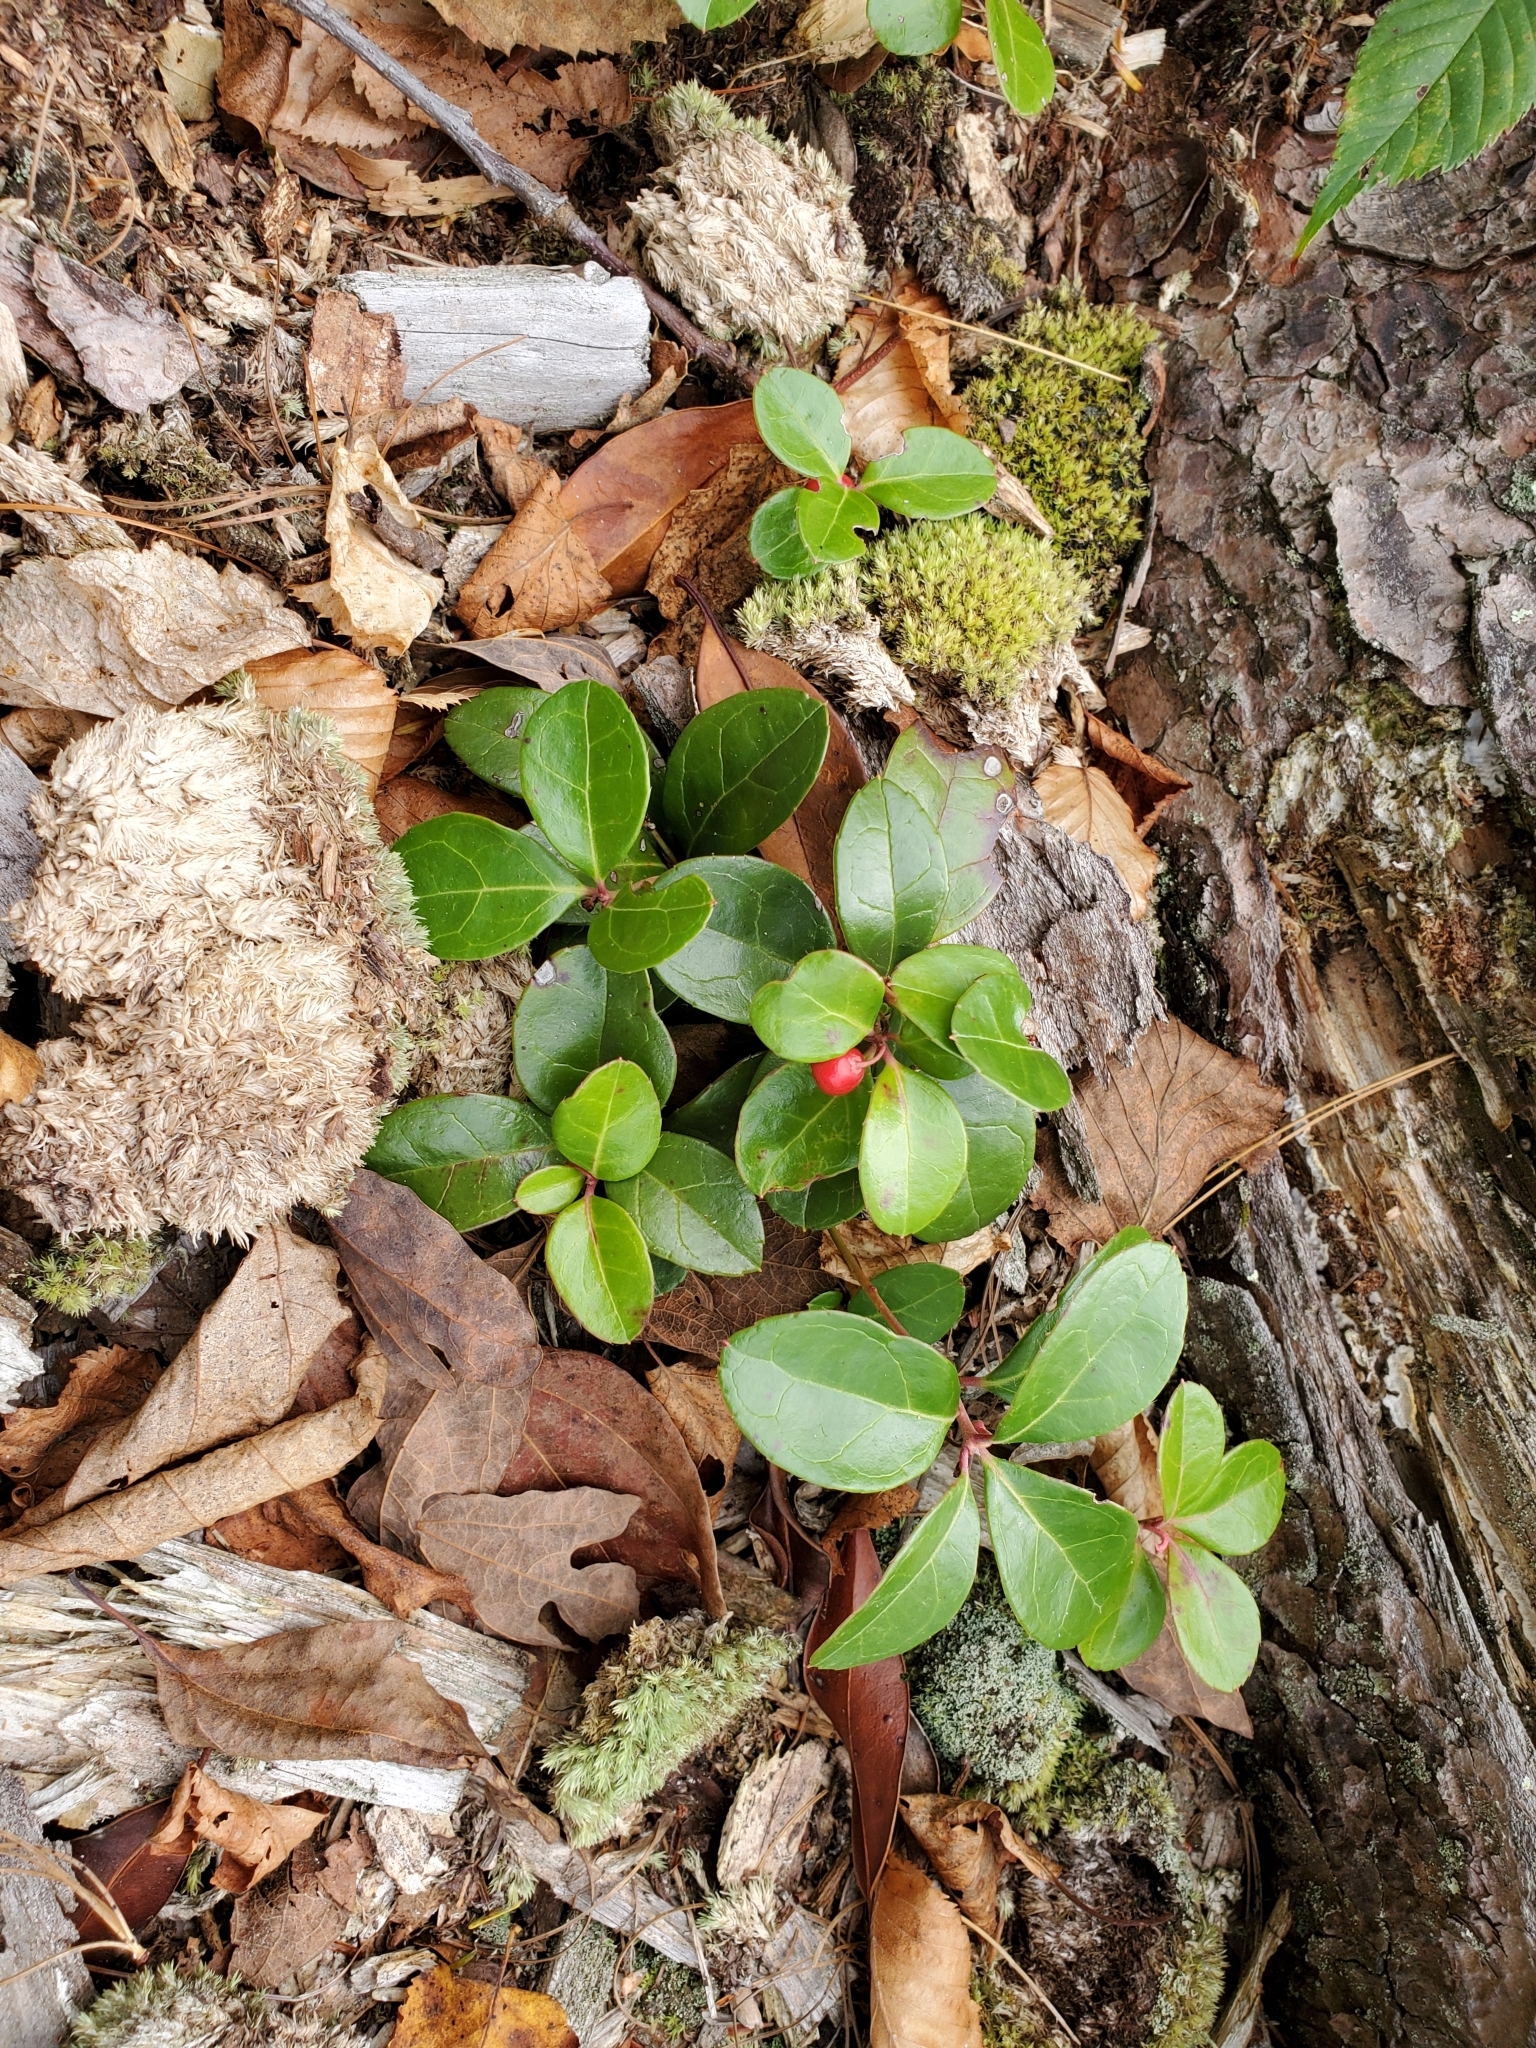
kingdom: Plantae
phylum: Tracheophyta
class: Magnoliopsida
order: Ericales
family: Ericaceae
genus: Gaultheria
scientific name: Gaultheria procumbens
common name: Checkerberry
